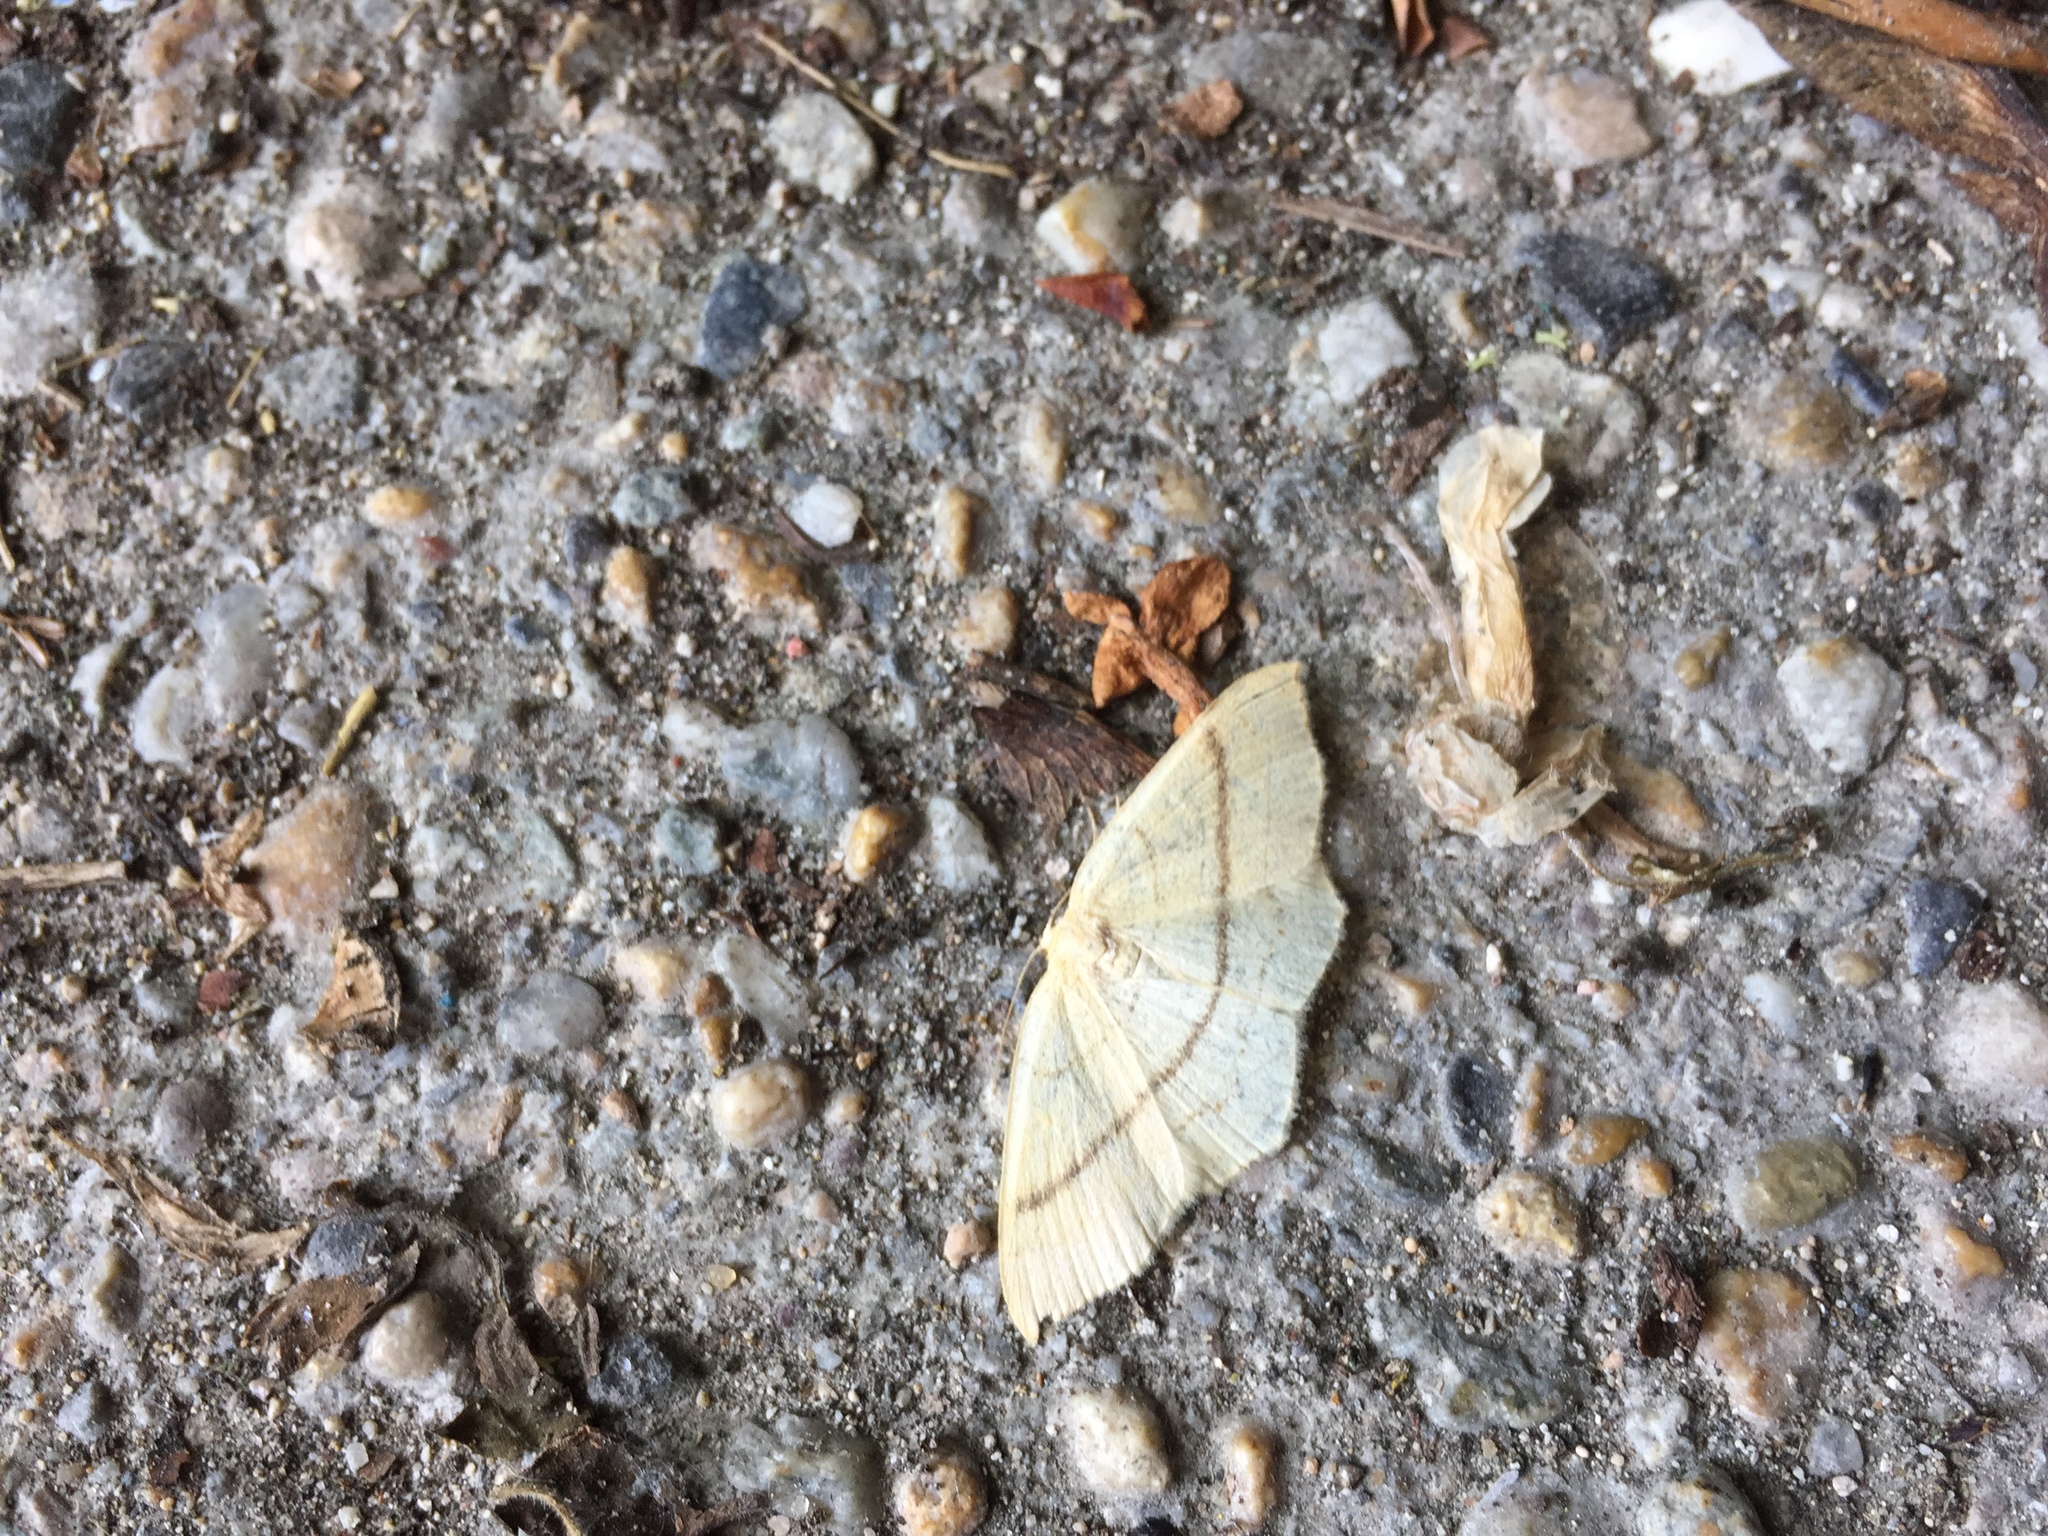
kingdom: Animalia
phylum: Arthropoda
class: Insecta
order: Lepidoptera
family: Geometridae
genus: Cyclophora
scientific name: Cyclophora linearia
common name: Clay triple-lines
